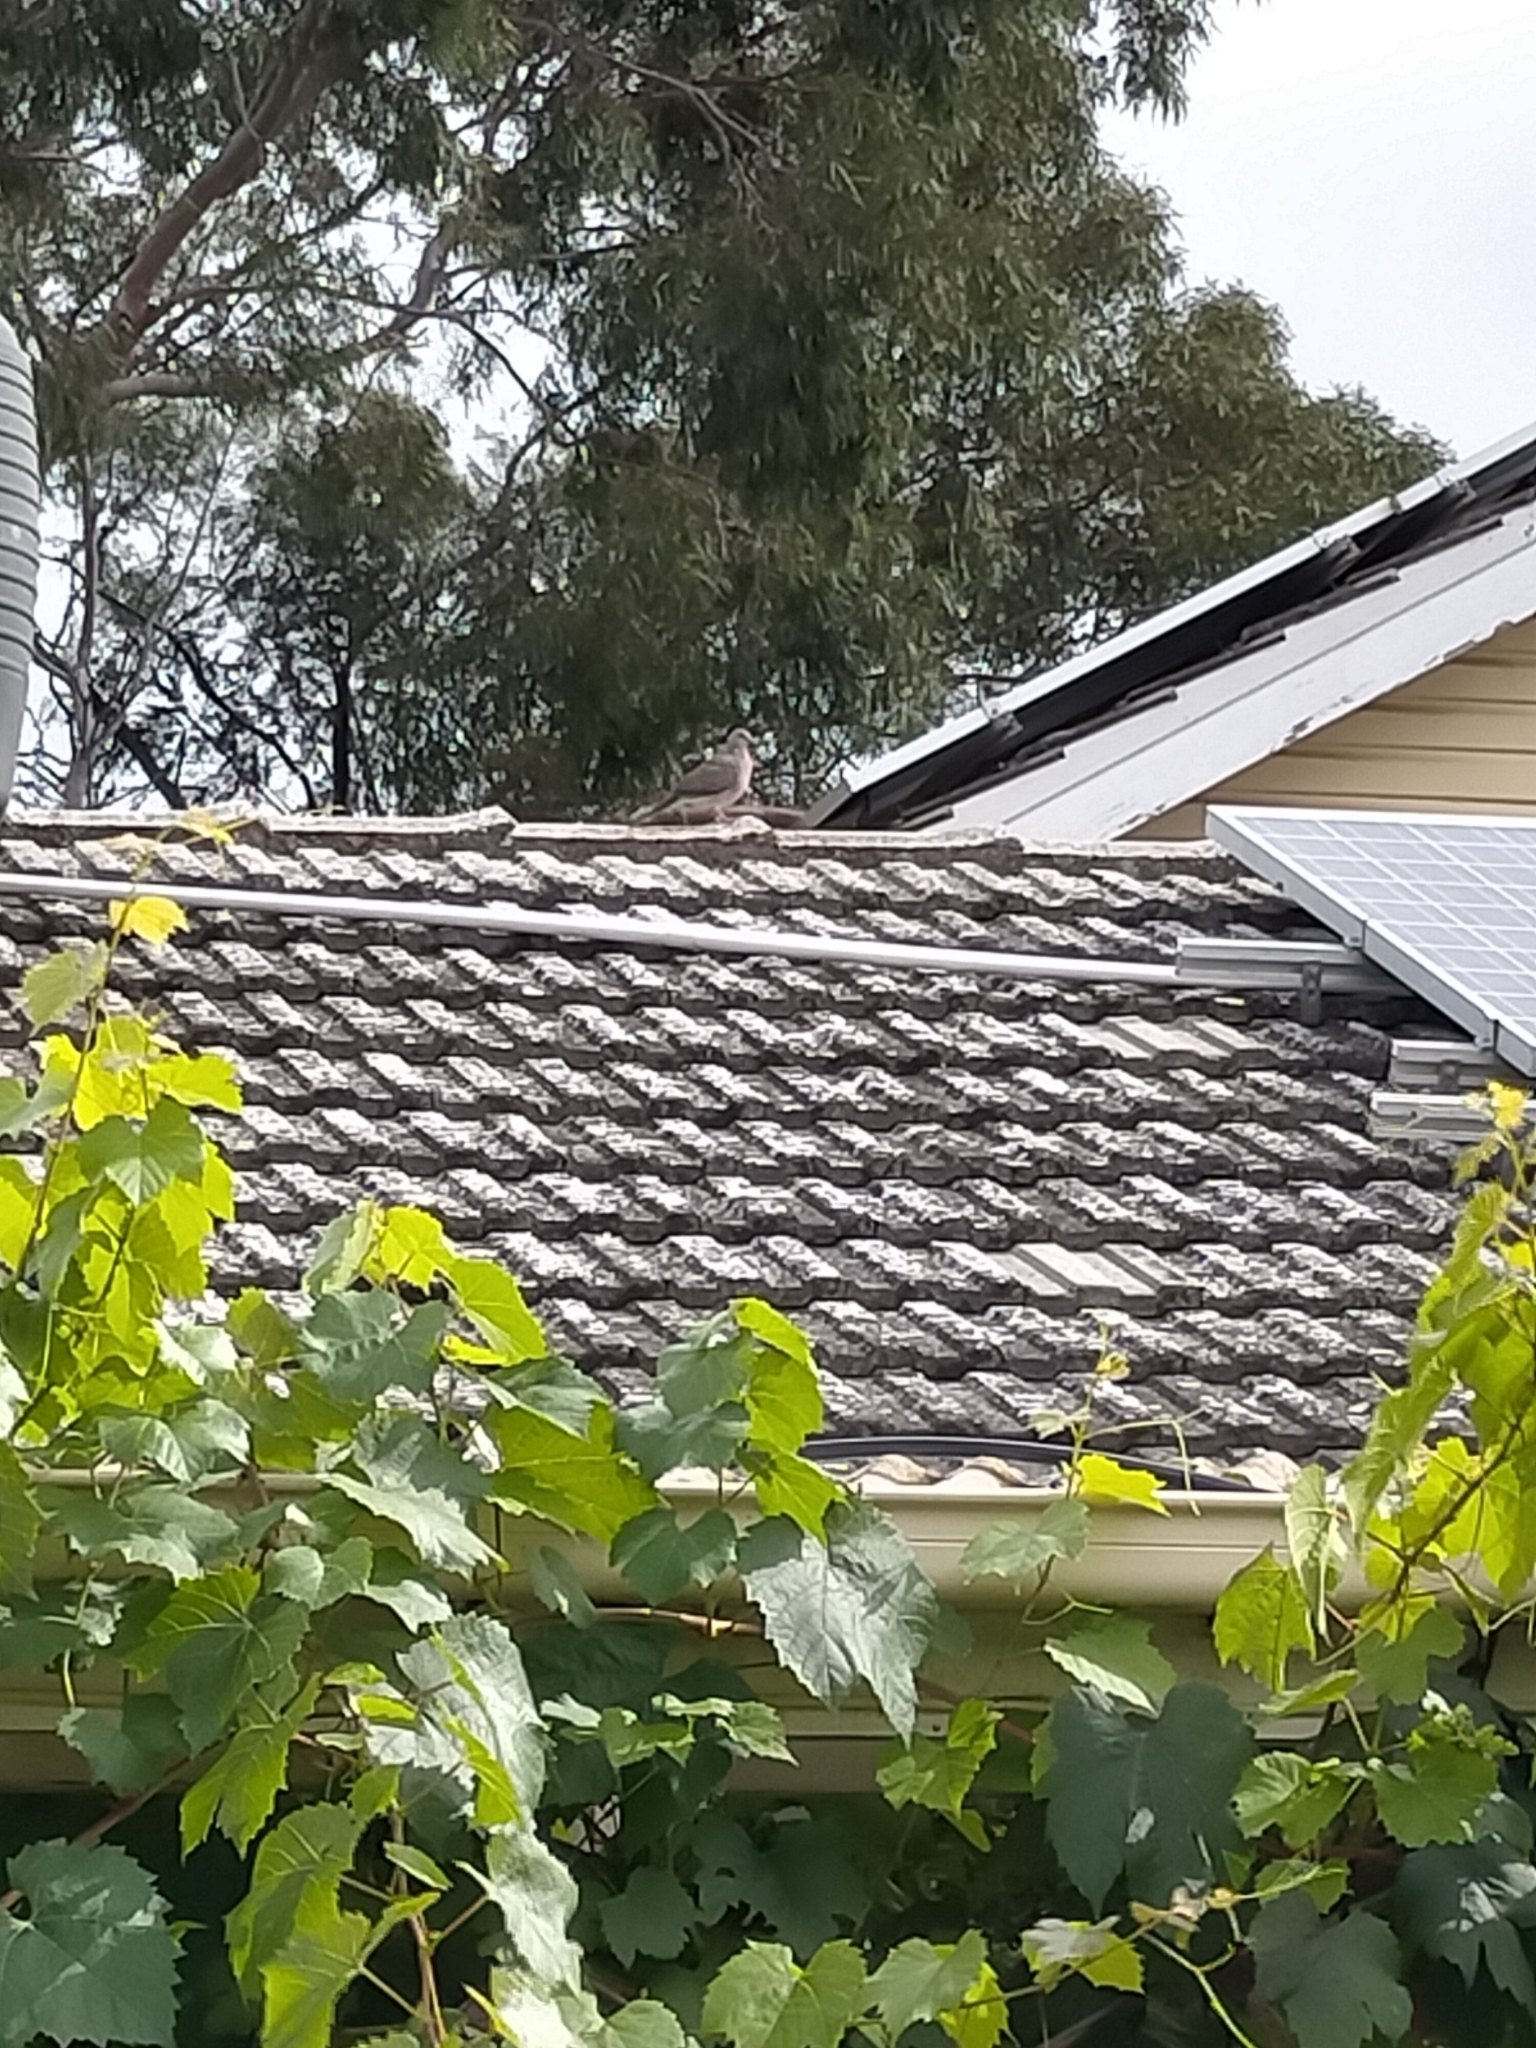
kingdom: Animalia
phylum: Chordata
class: Aves
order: Columbiformes
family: Columbidae
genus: Spilopelia
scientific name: Spilopelia chinensis
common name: Spotted dove
